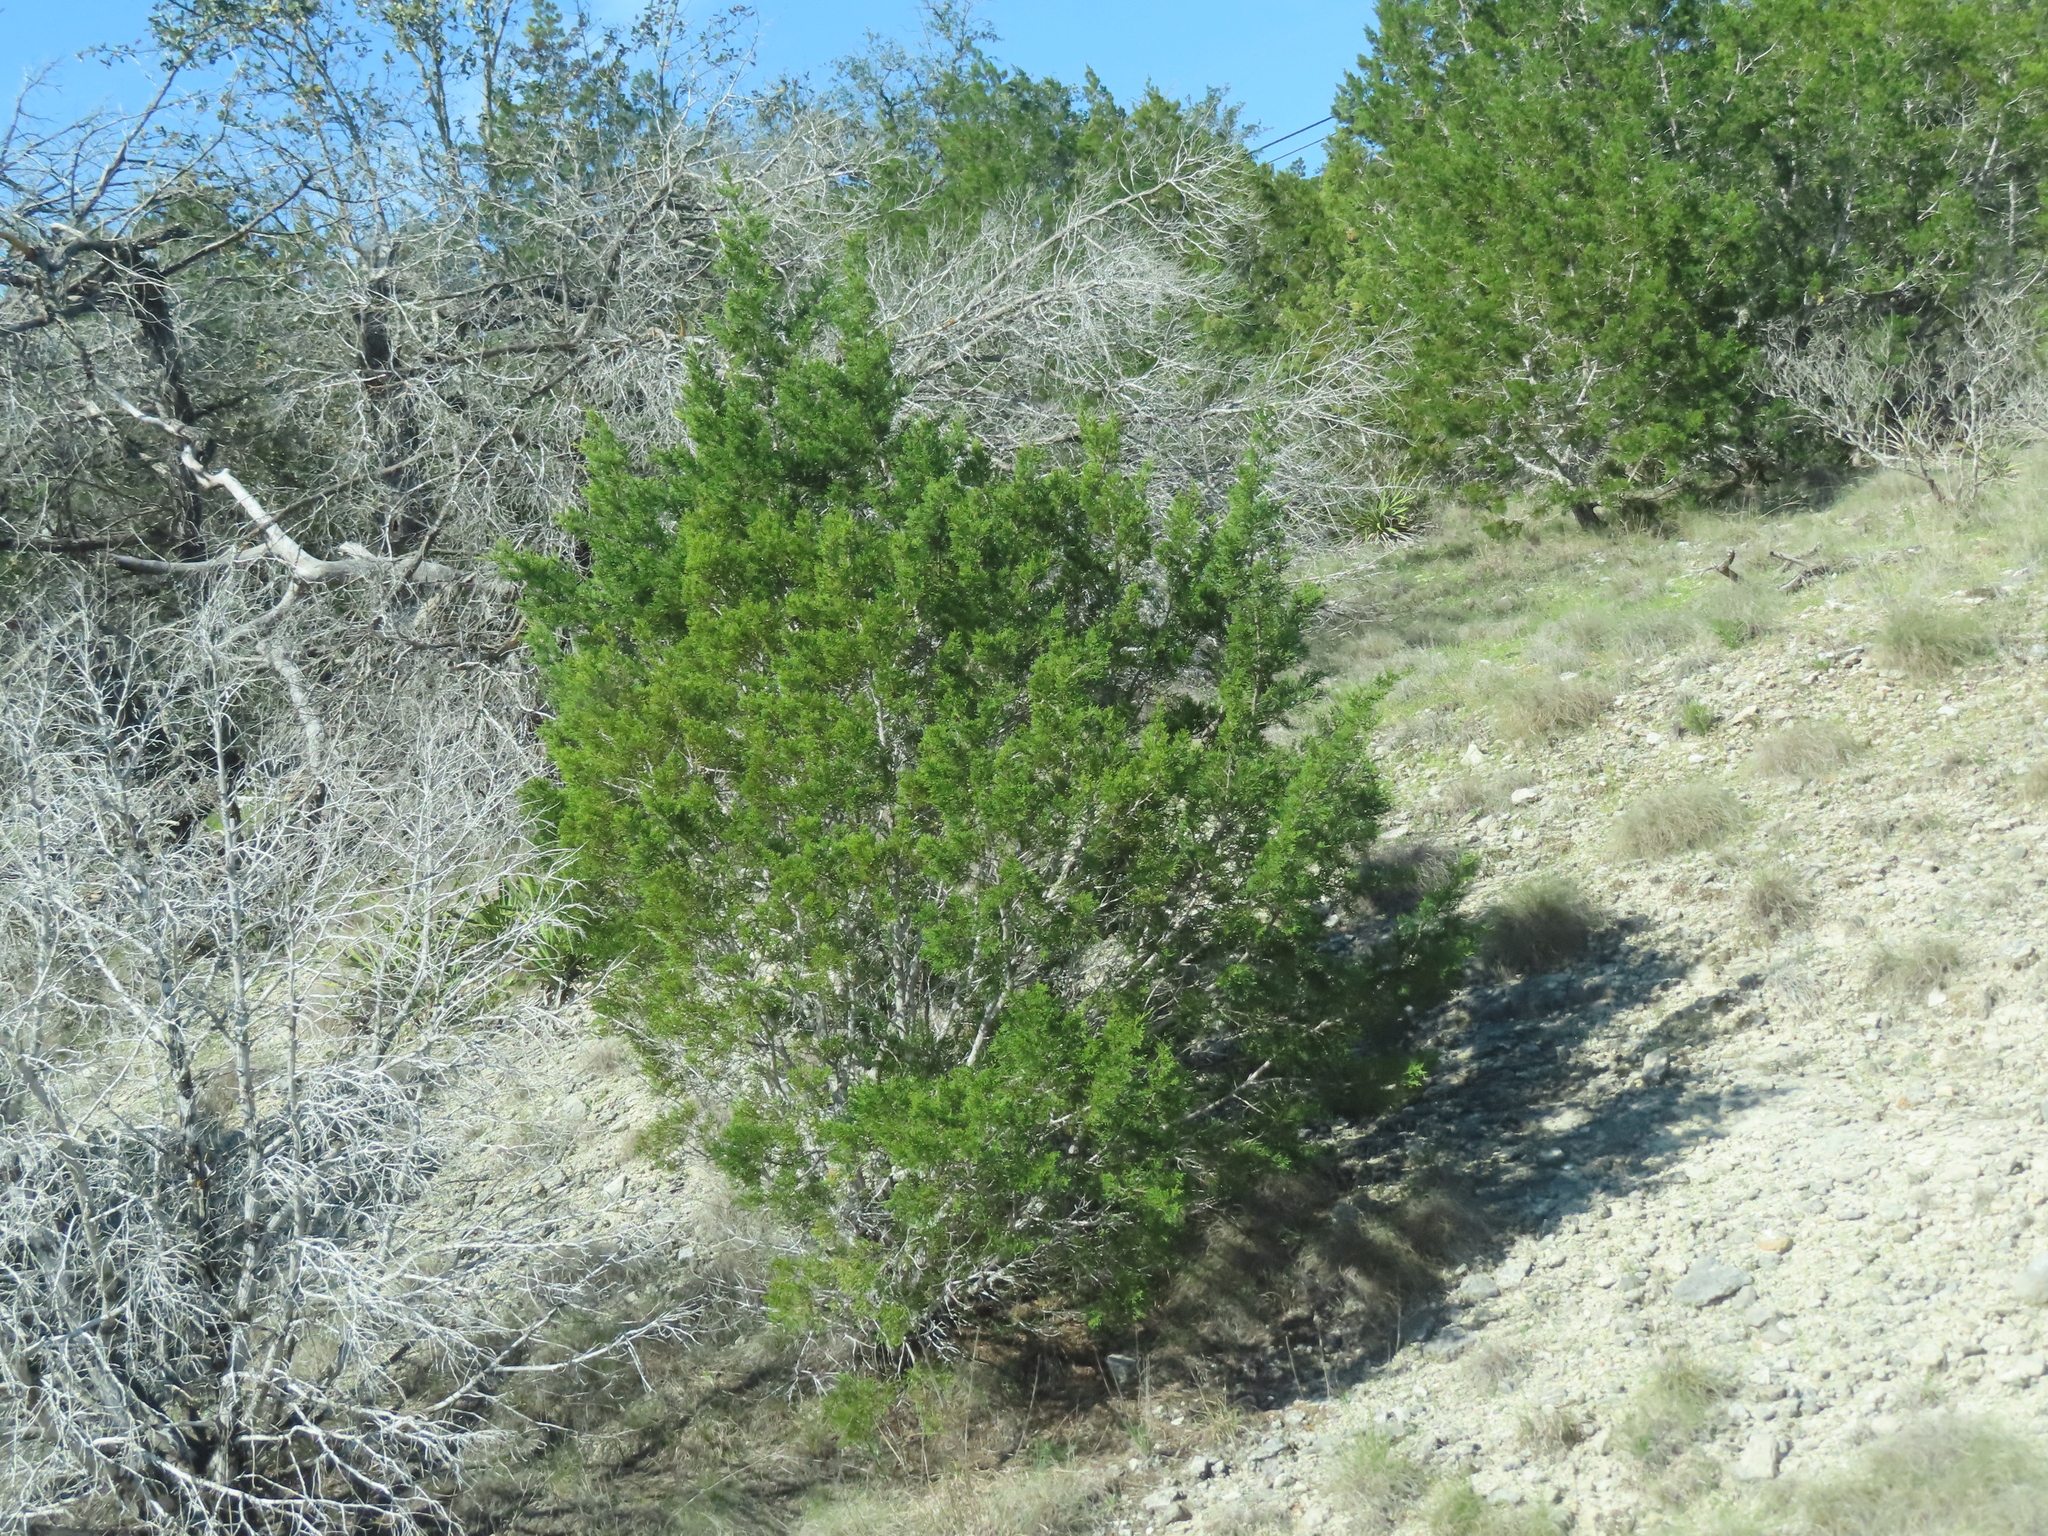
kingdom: Plantae
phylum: Tracheophyta
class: Pinopsida
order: Pinales
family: Cupressaceae
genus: Juniperus
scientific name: Juniperus ashei
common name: Mexican juniper
